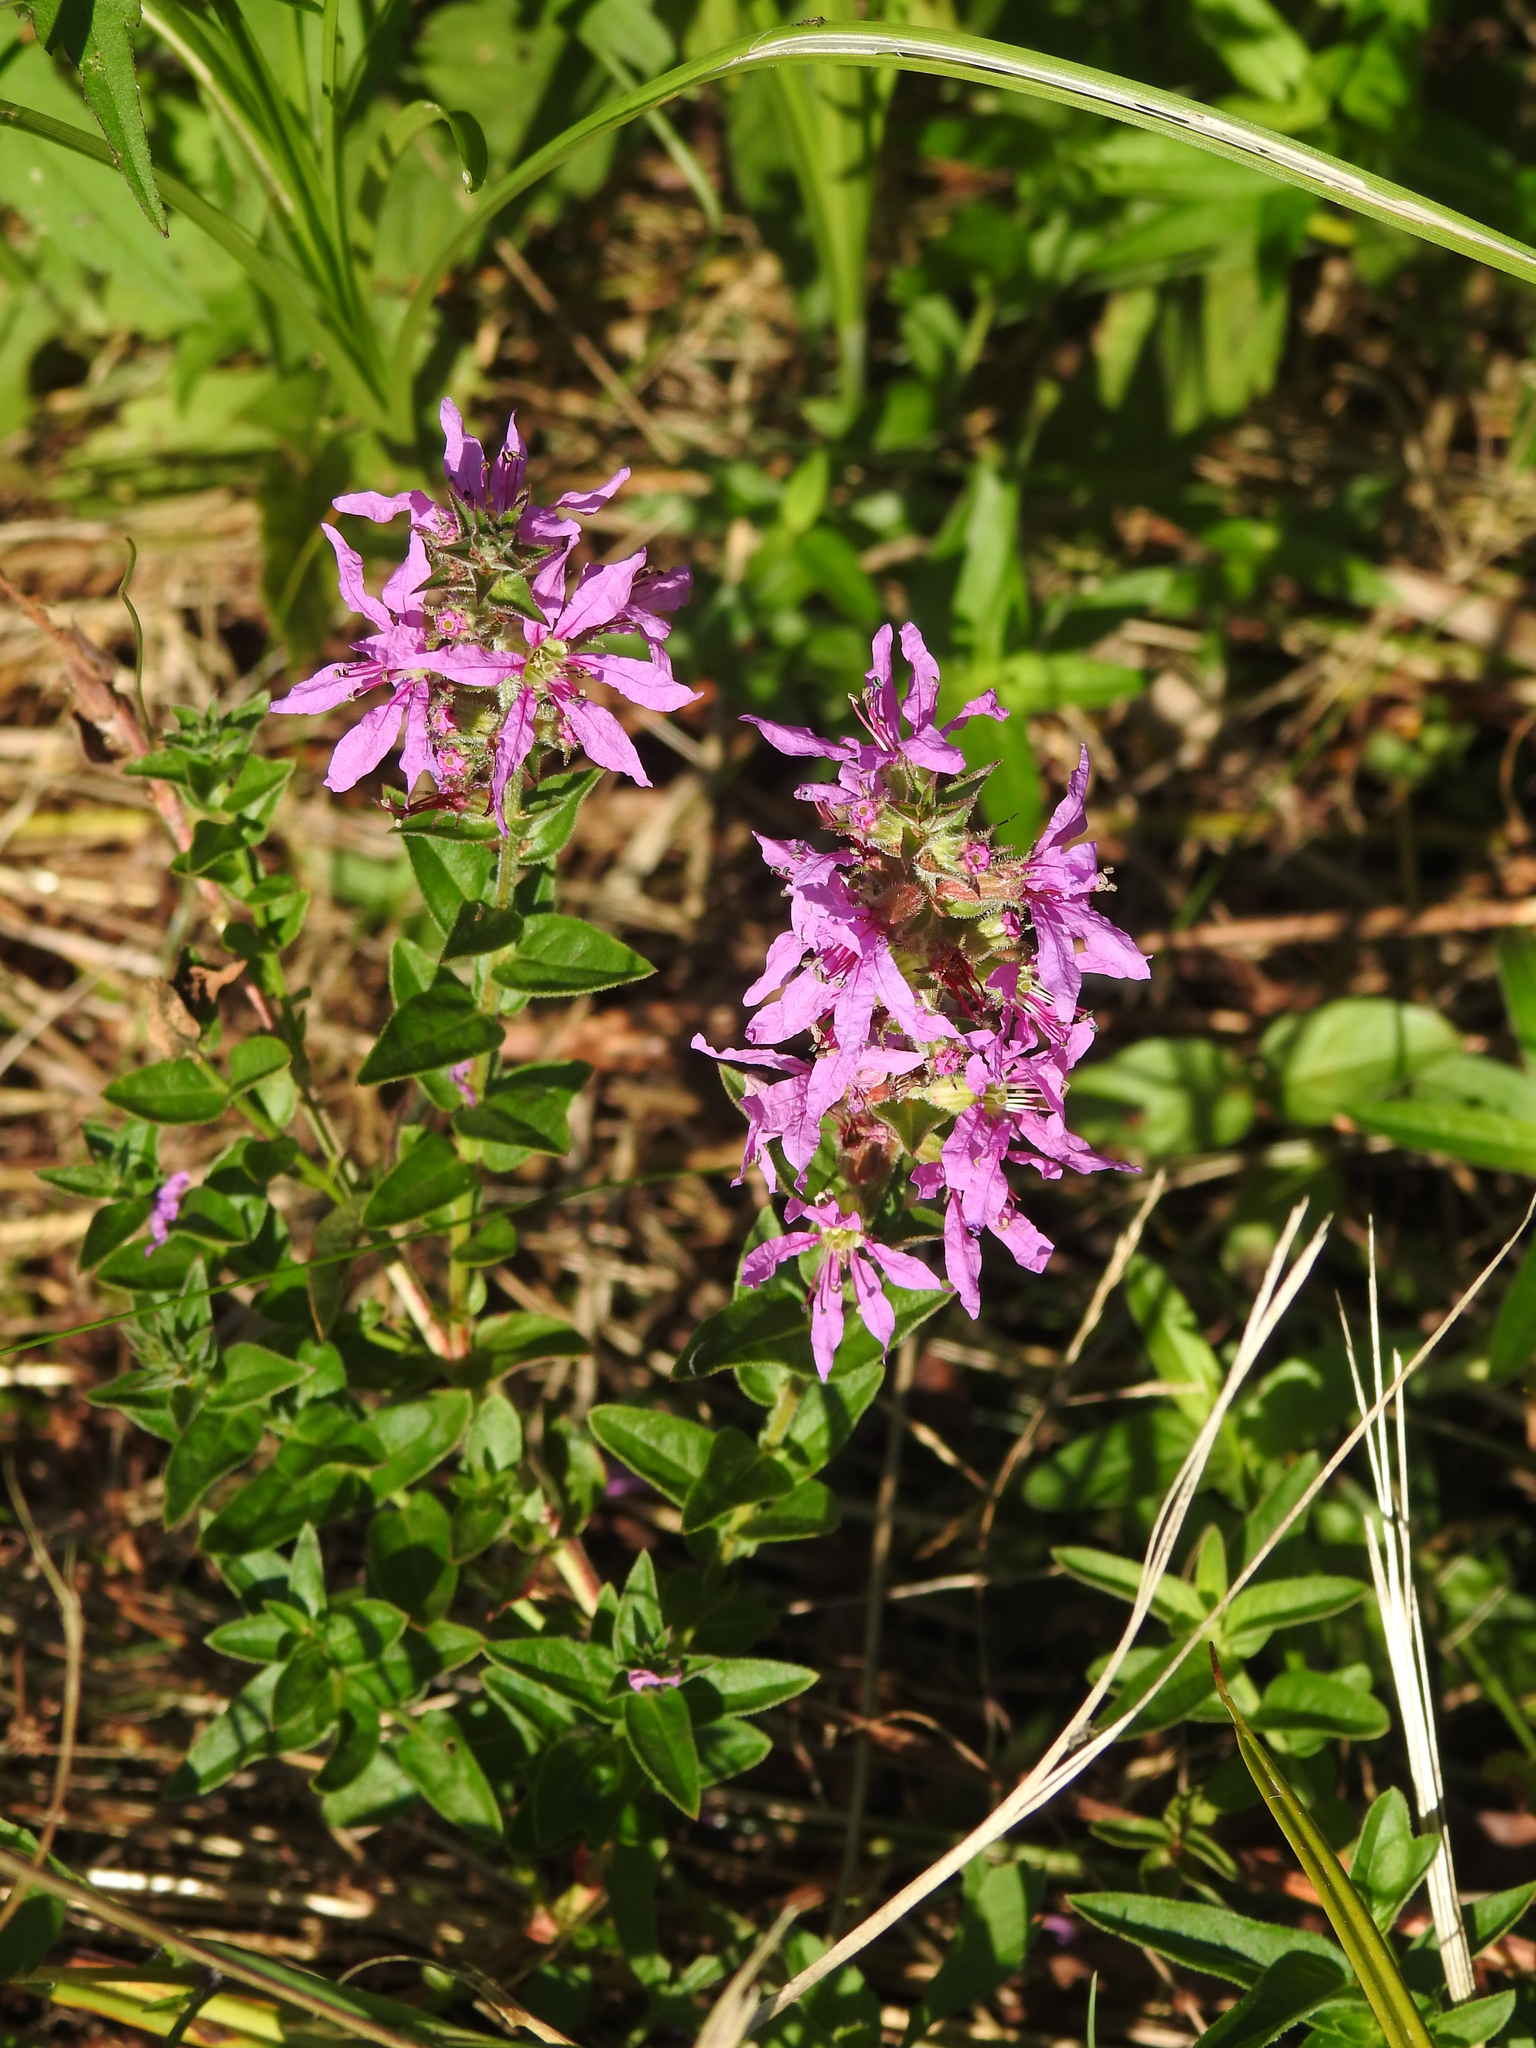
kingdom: Plantae
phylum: Tracheophyta
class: Magnoliopsida
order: Myrtales
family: Lythraceae
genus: Lythrum
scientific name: Lythrum salicaria
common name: Purple loosestrife
